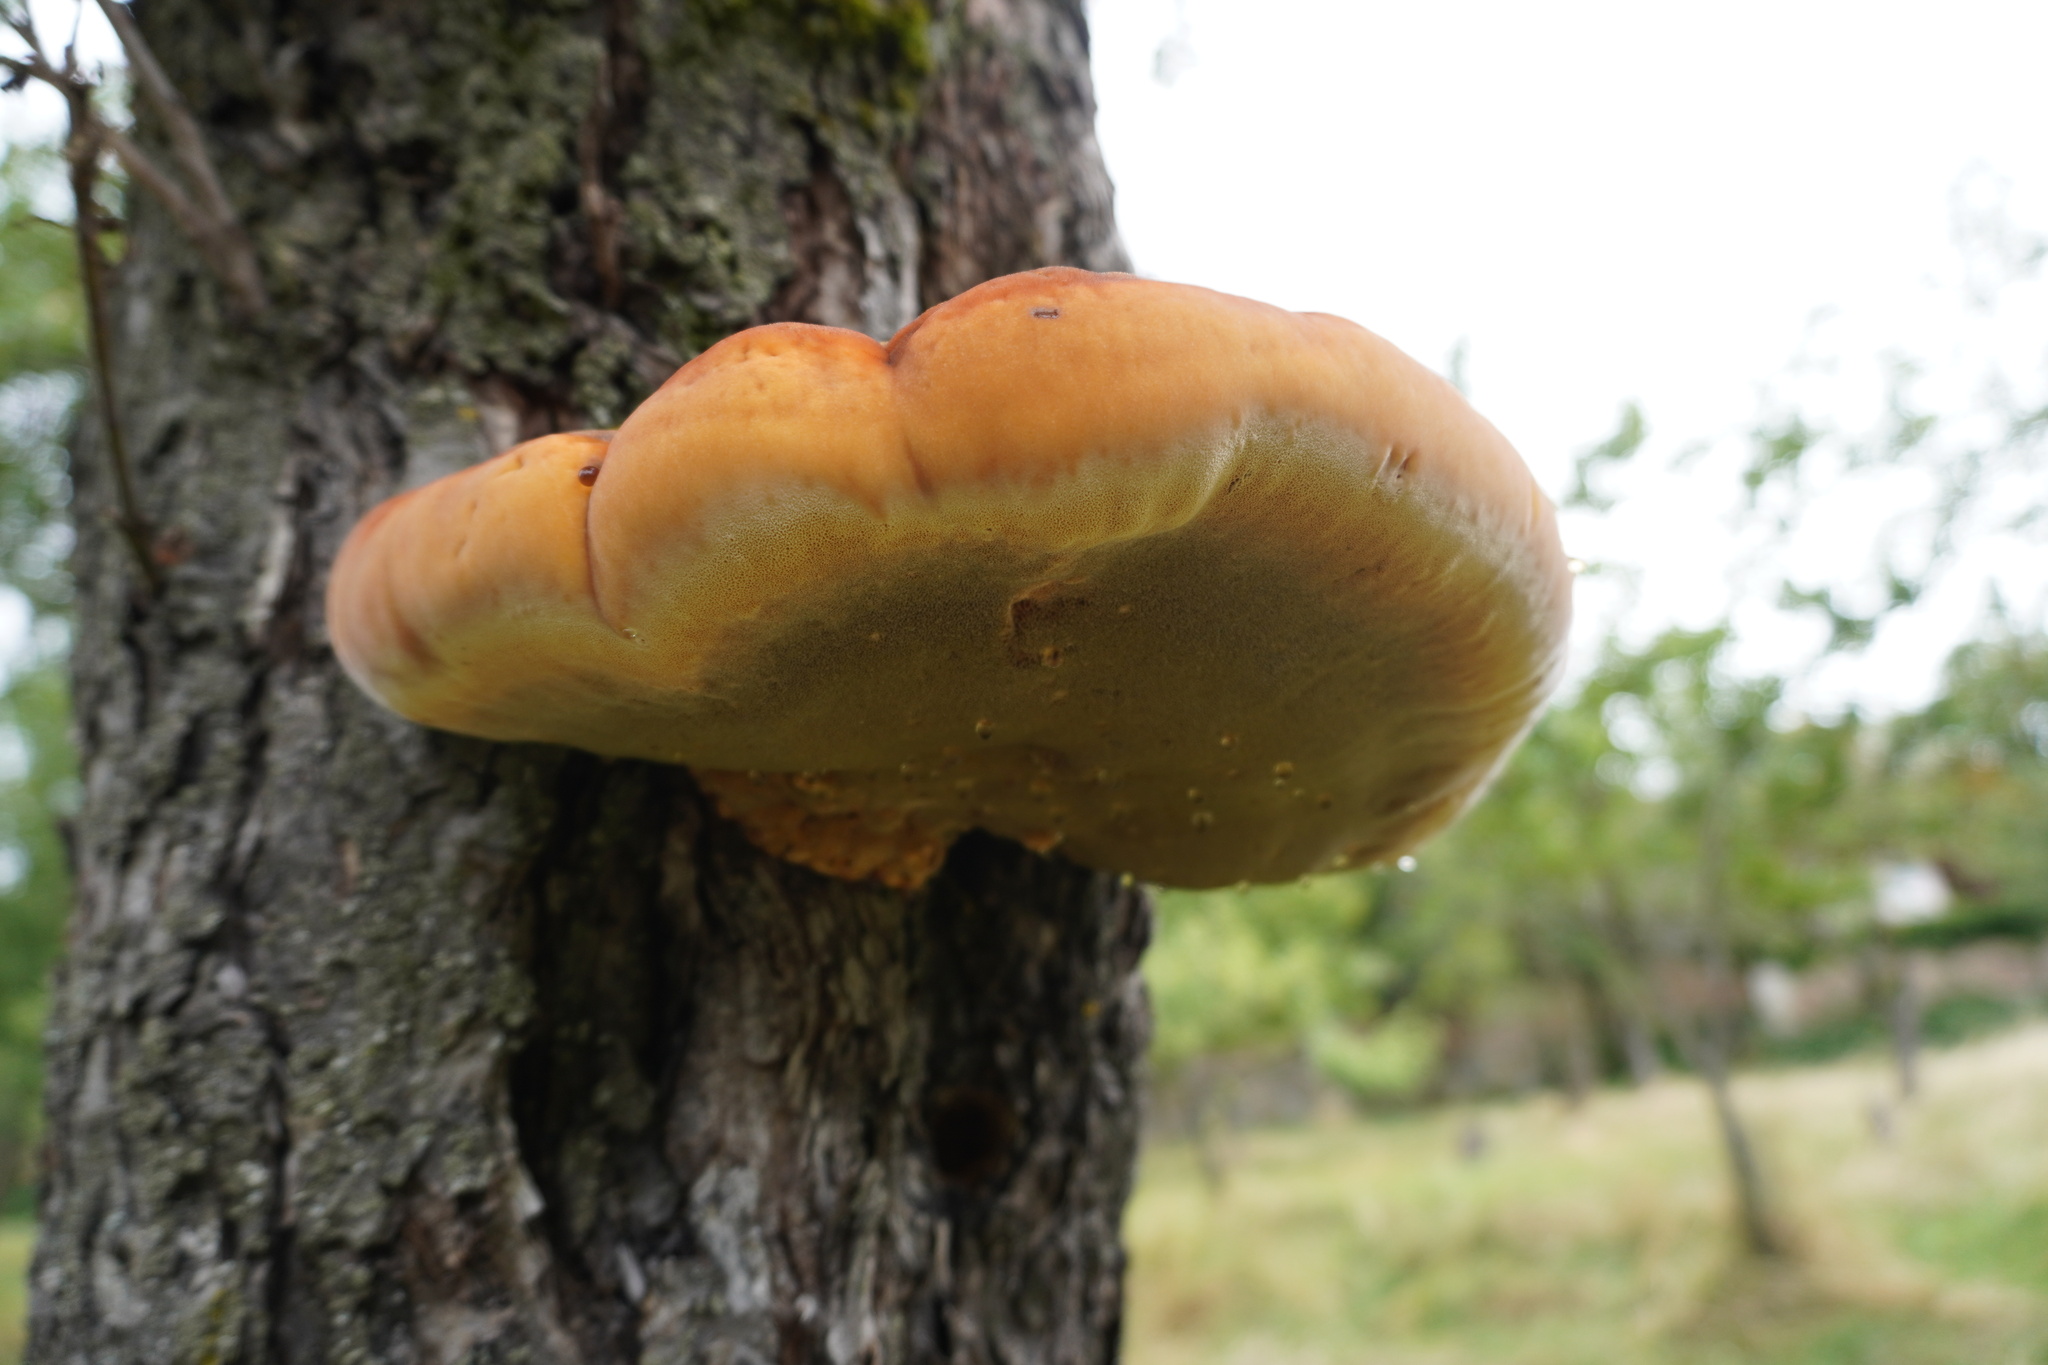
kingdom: Fungi
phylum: Basidiomycota
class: Agaricomycetes
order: Hymenochaetales
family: Hymenochaetaceae
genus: Inonotus
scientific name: Inonotus hispidus
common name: Shaggy bracket
